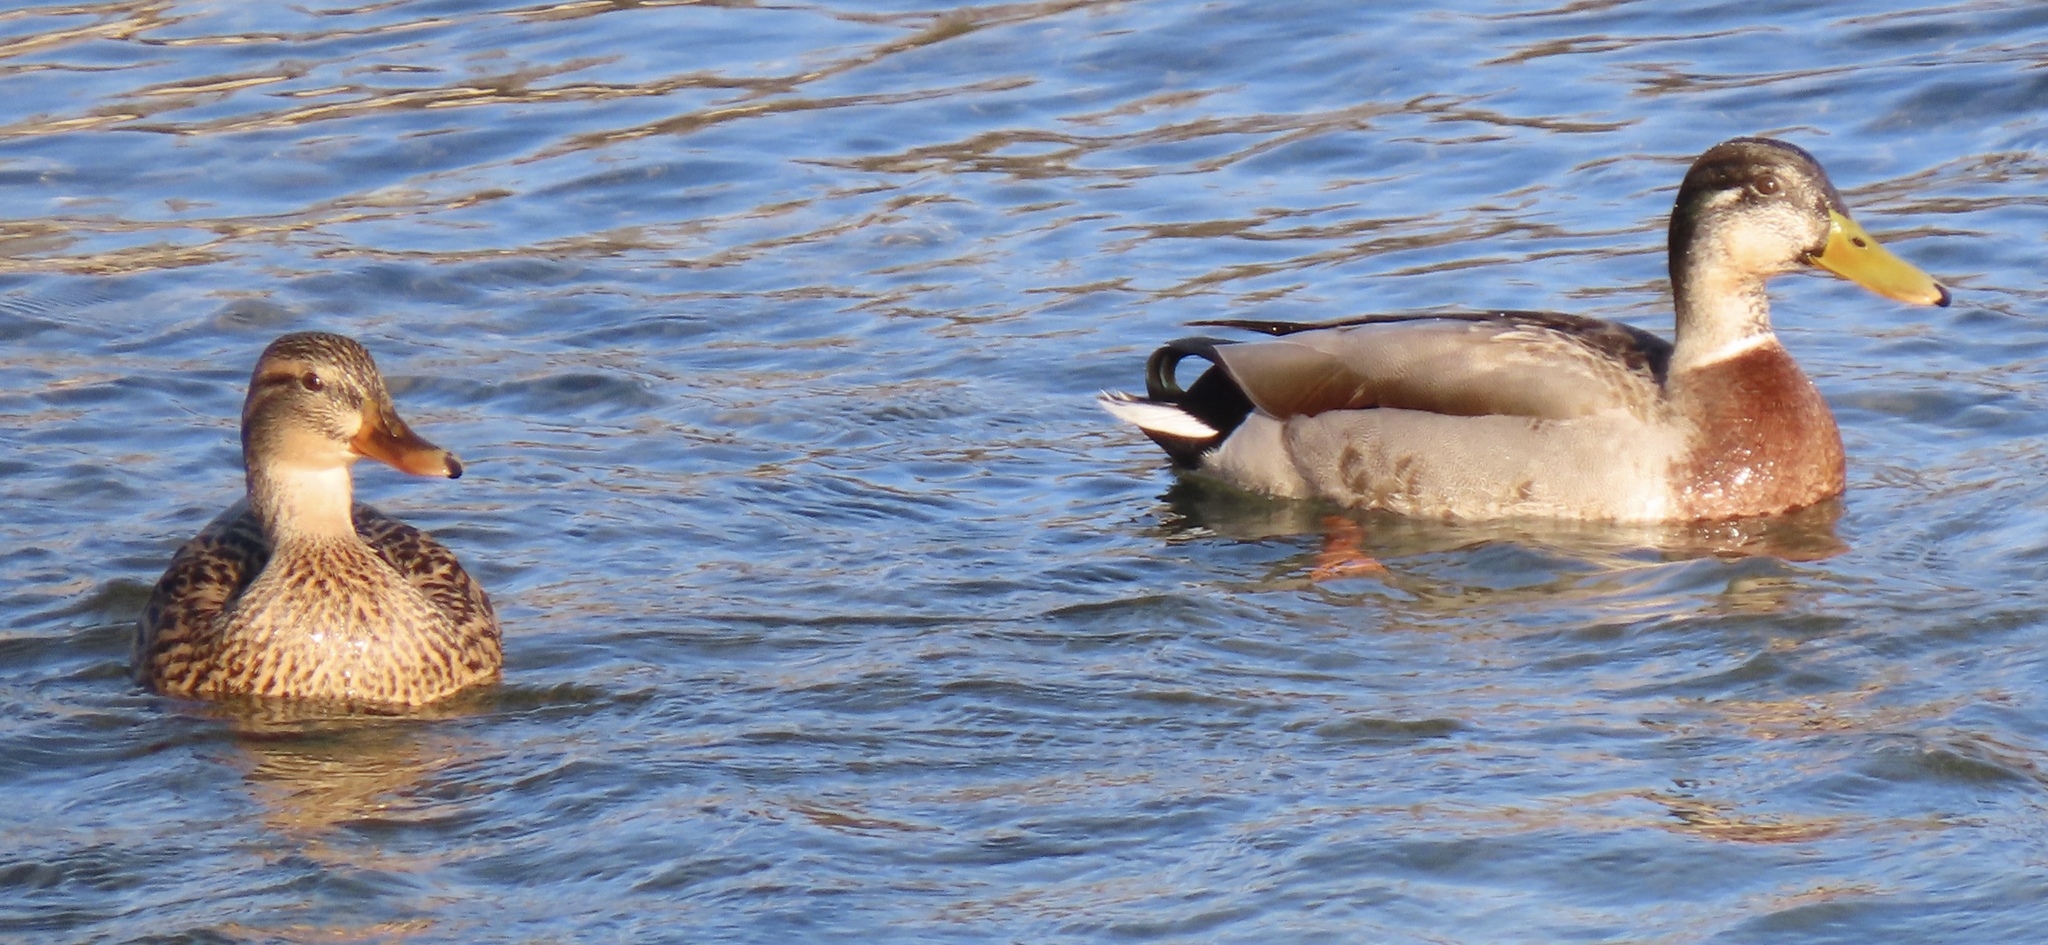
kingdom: Animalia
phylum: Chordata
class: Aves
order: Anseriformes
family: Anatidae
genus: Anas
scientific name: Anas platyrhynchos
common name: Mallard
